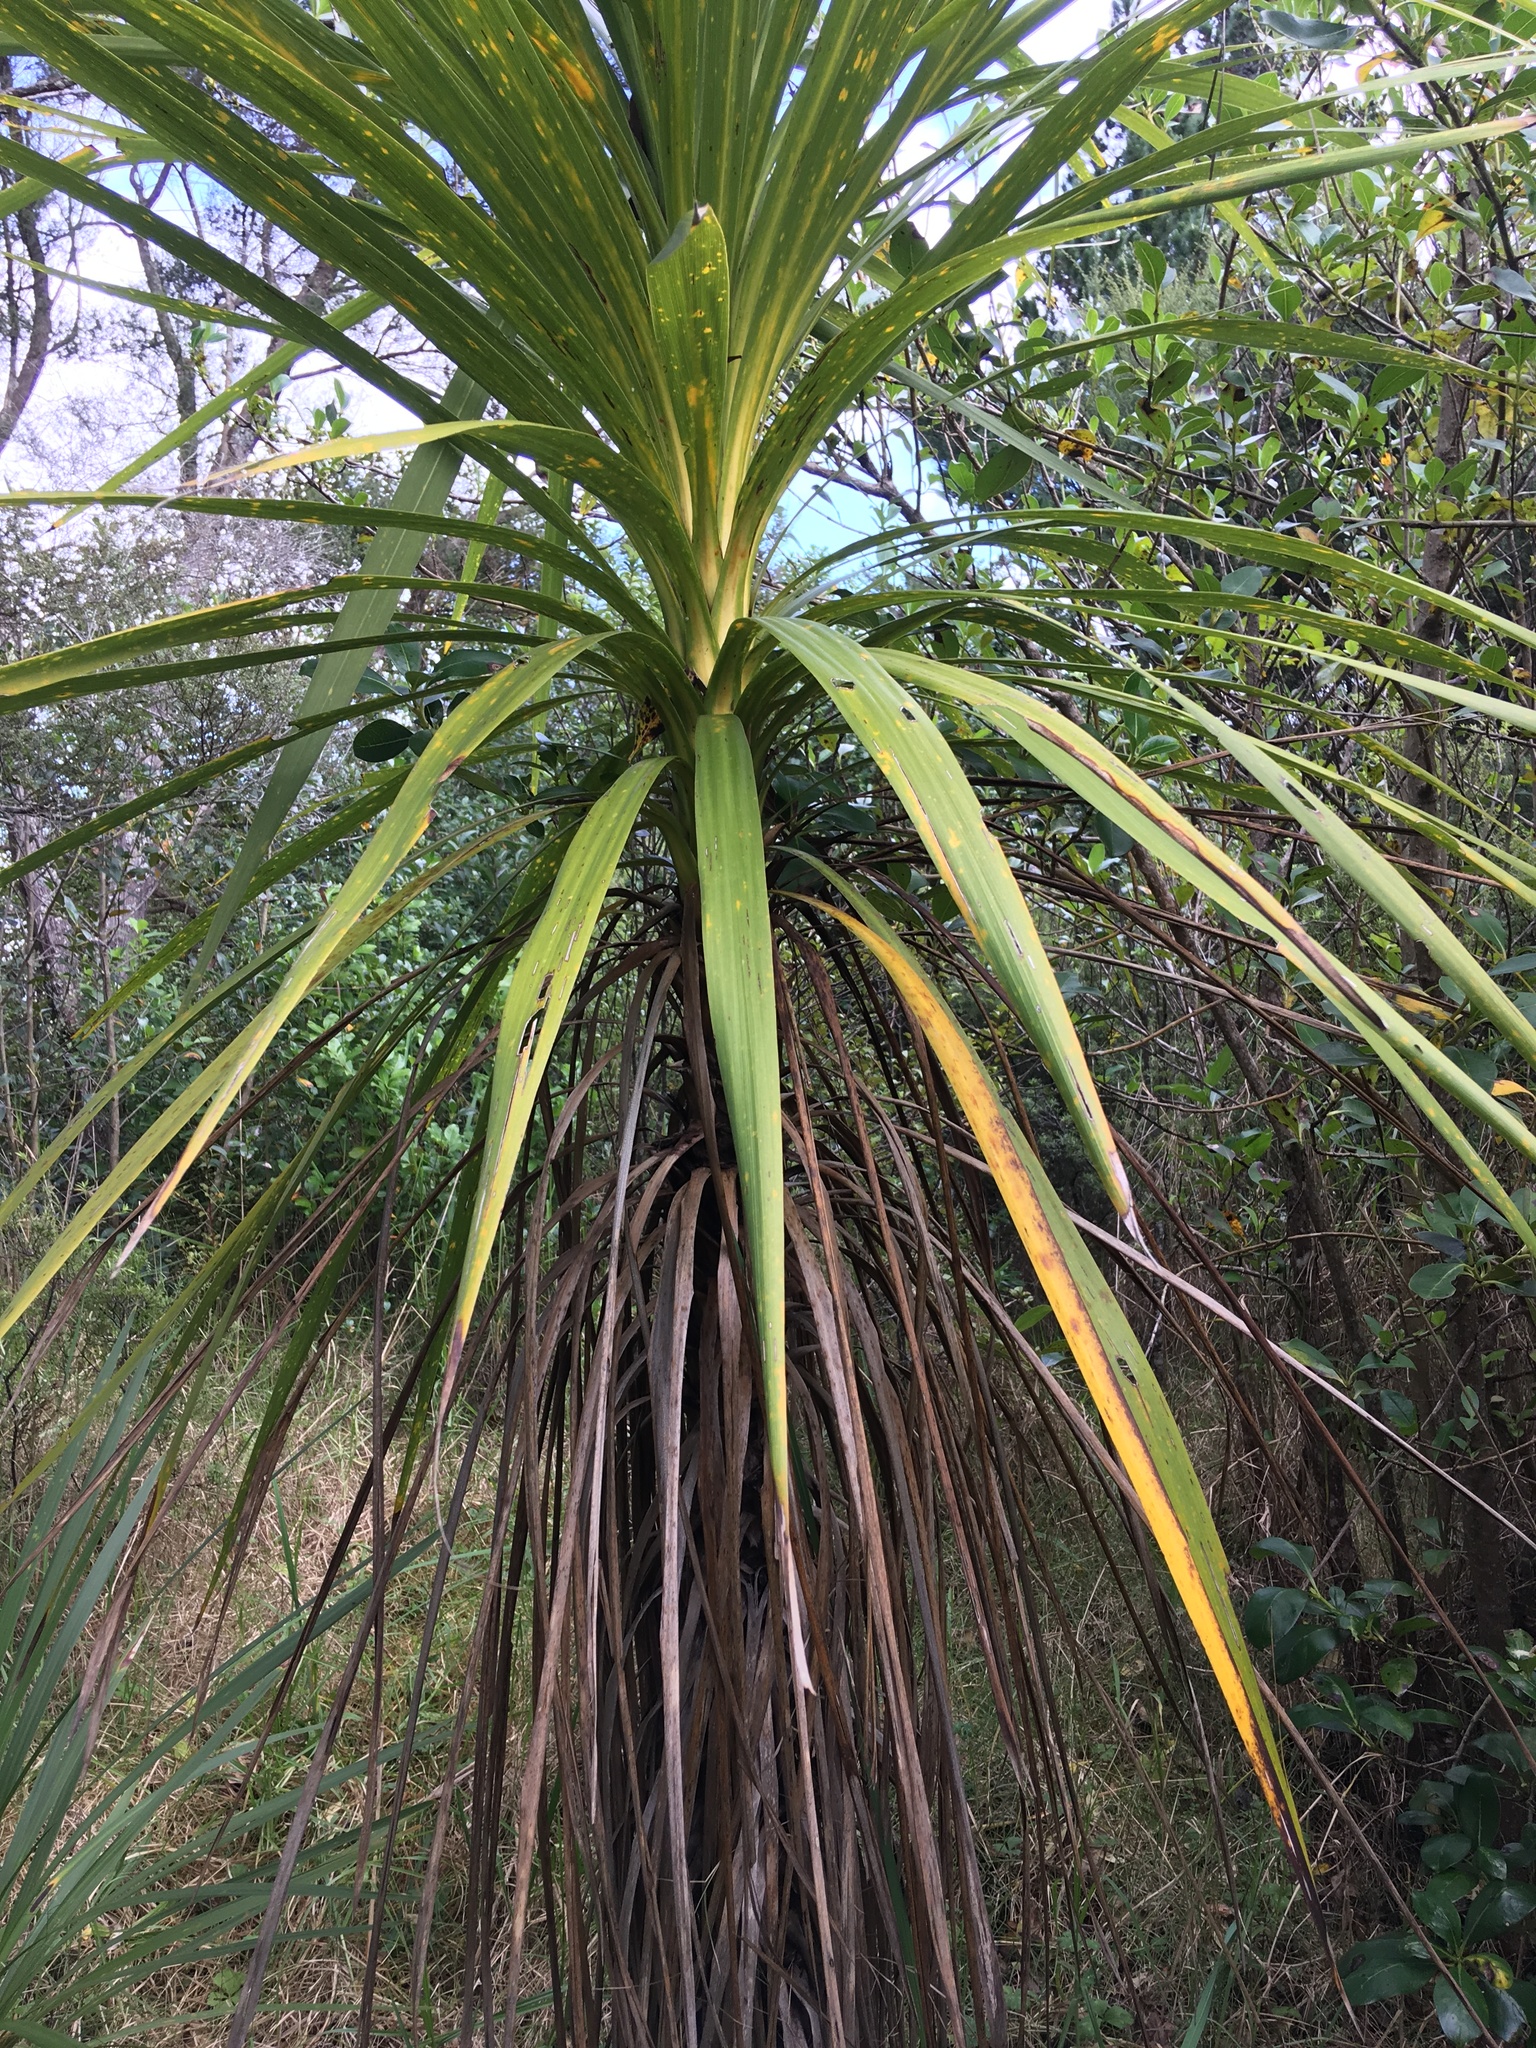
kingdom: Plantae
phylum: Tracheophyta
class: Liliopsida
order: Asparagales
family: Asparagaceae
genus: Cordyline
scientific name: Cordyline australis
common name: Cabbage-palm
